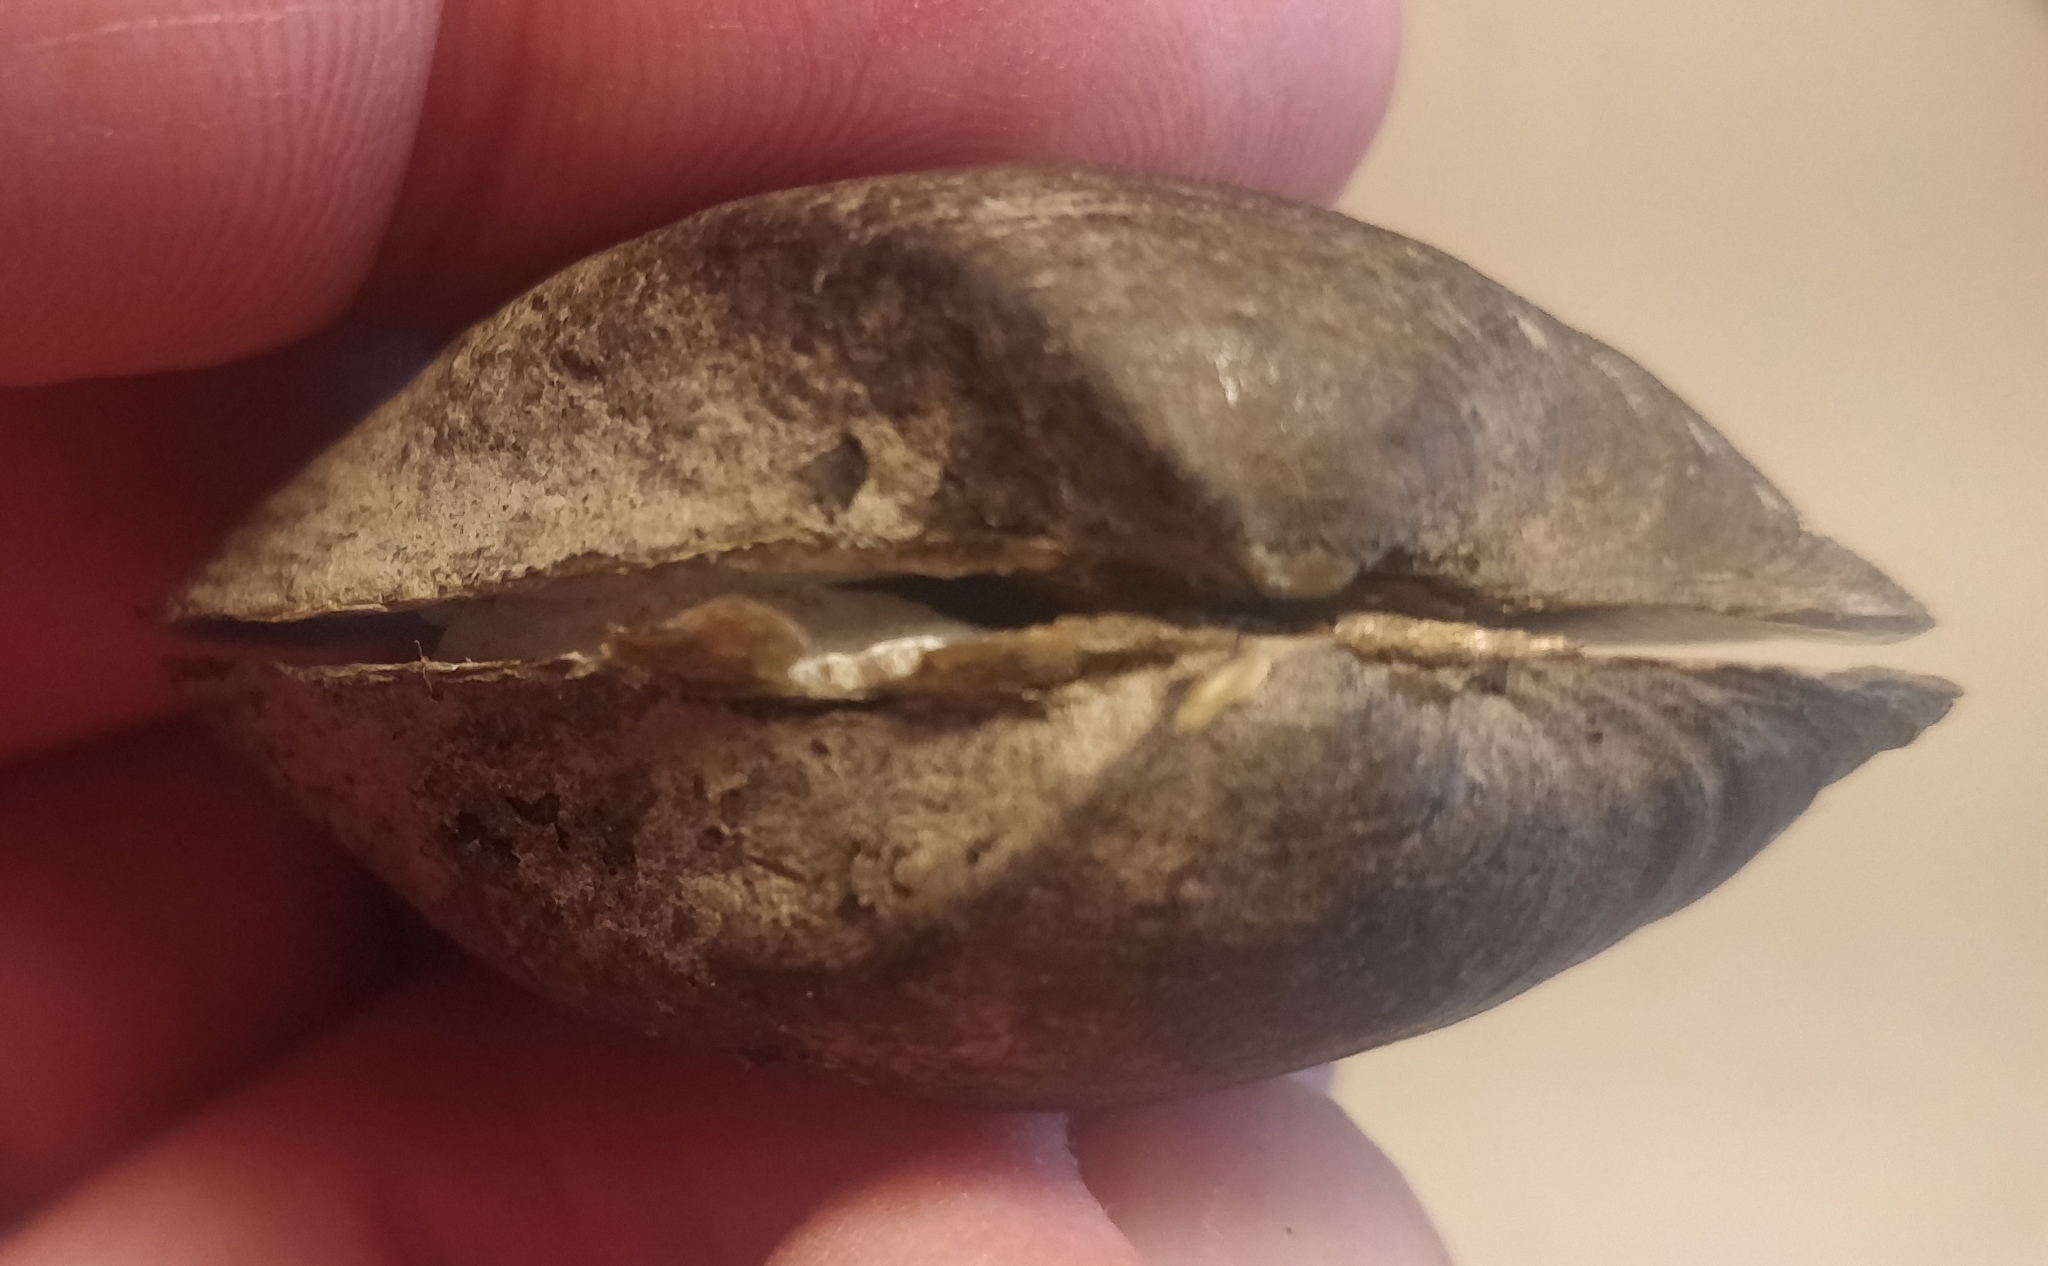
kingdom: Animalia
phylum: Mollusca
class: Bivalvia
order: Unionida
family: Unionidae
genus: Truncilla
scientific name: Truncilla truncata
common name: Deertoe
